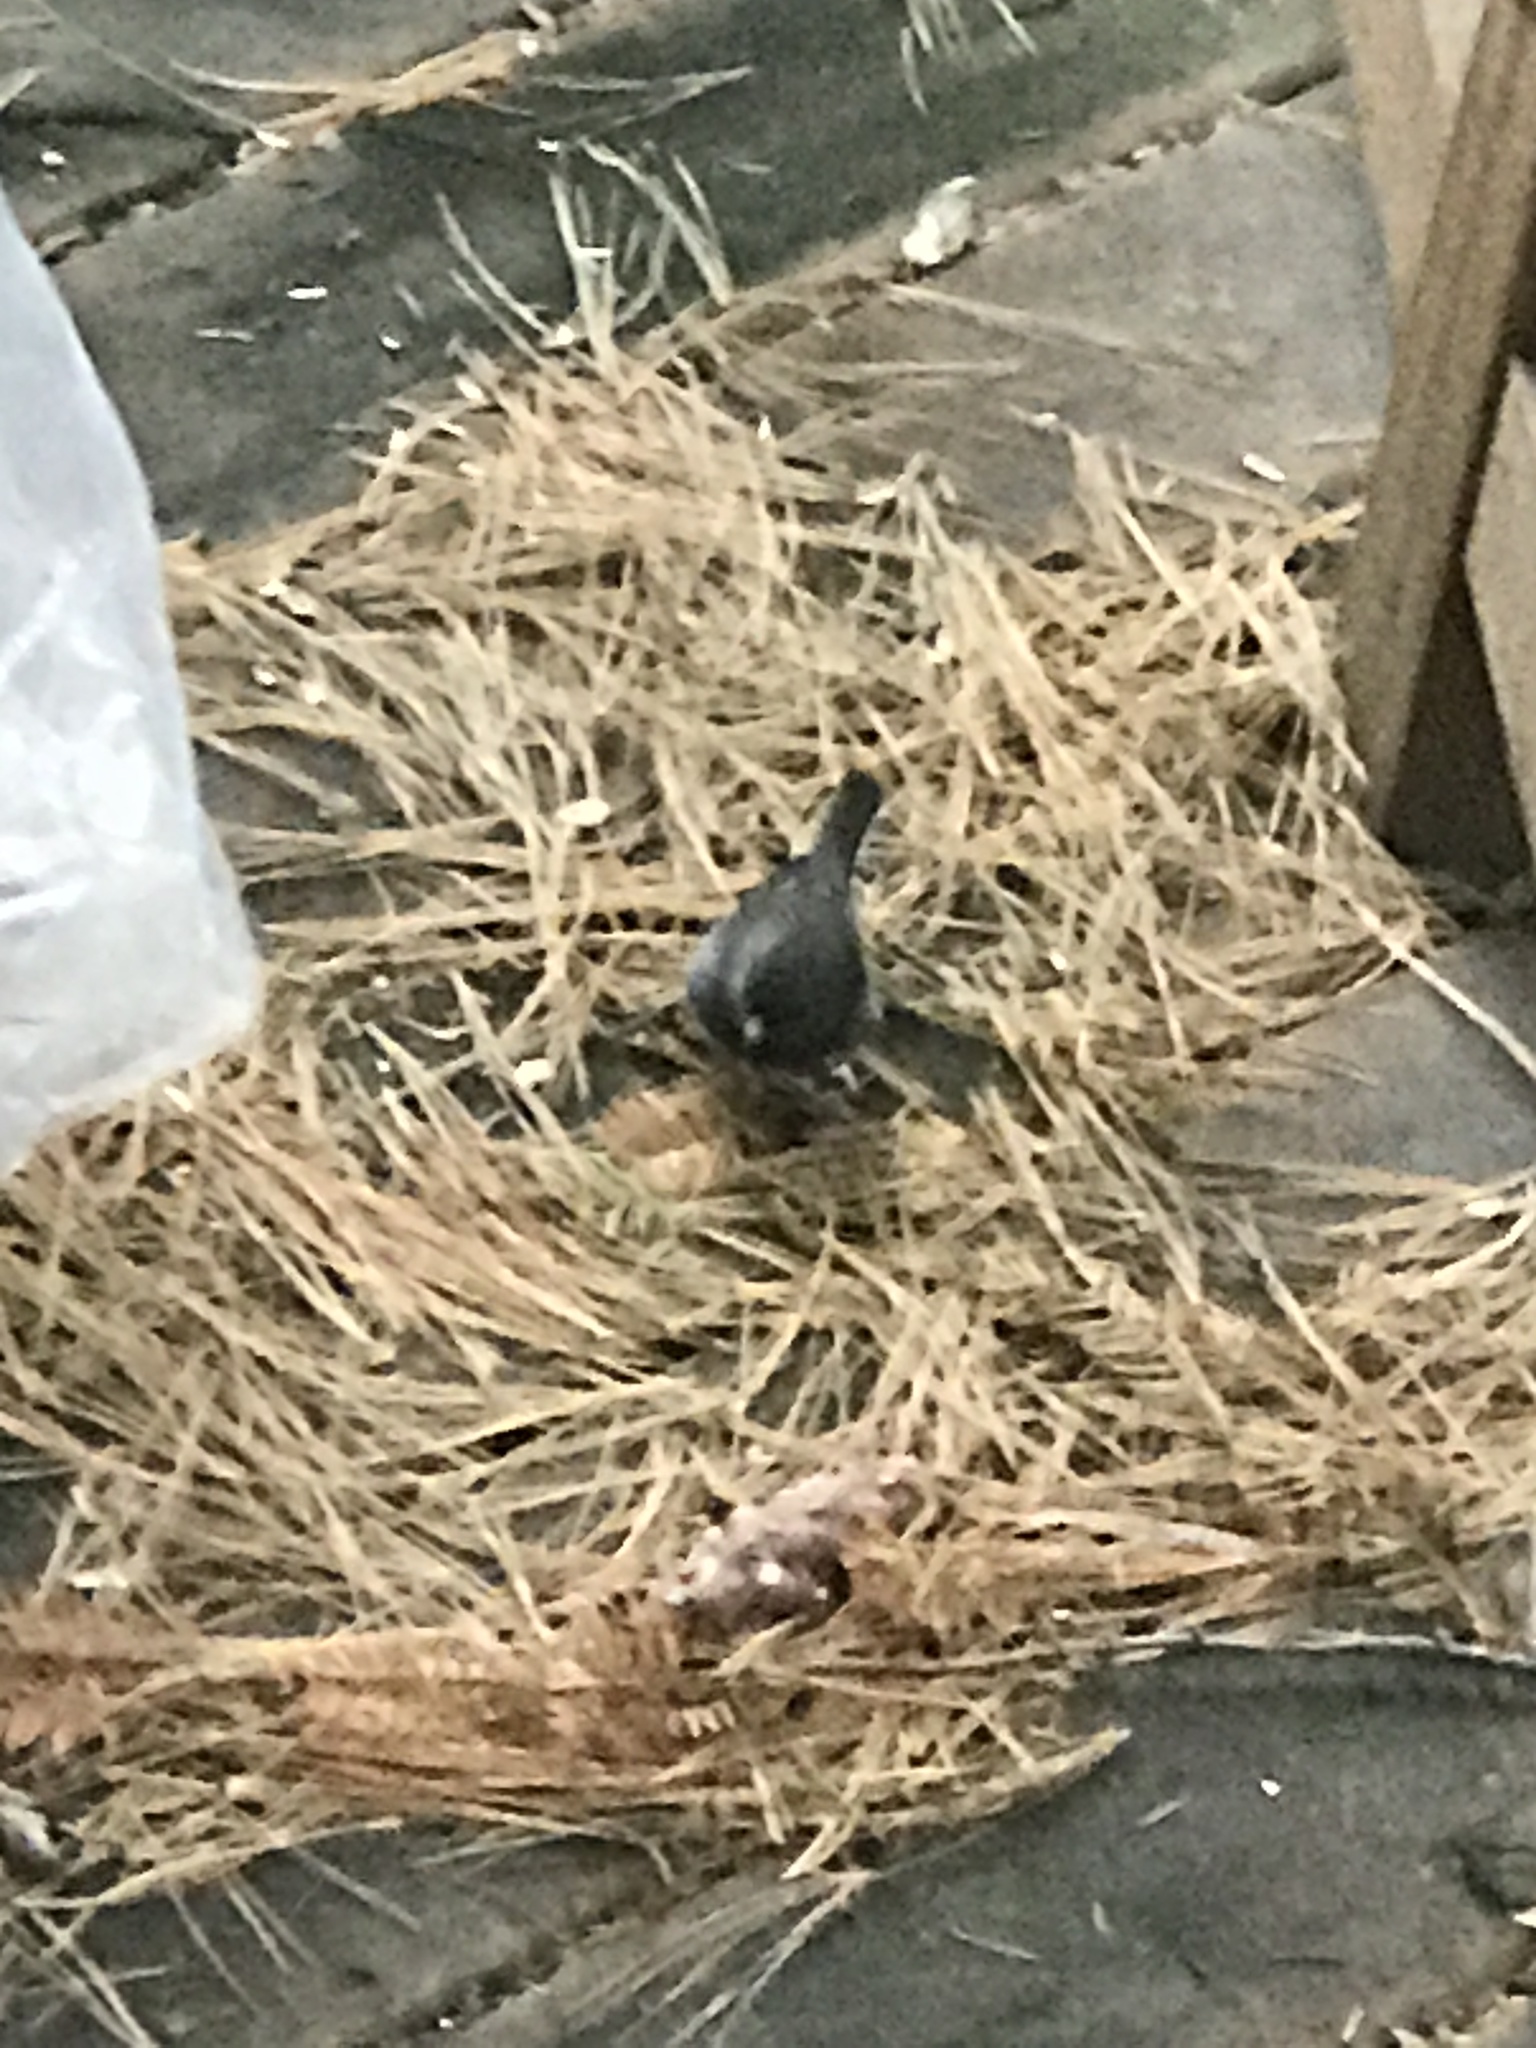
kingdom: Animalia
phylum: Chordata
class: Aves
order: Passeriformes
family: Passerellidae
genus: Junco
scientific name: Junco hyemalis
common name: Dark-eyed junco
